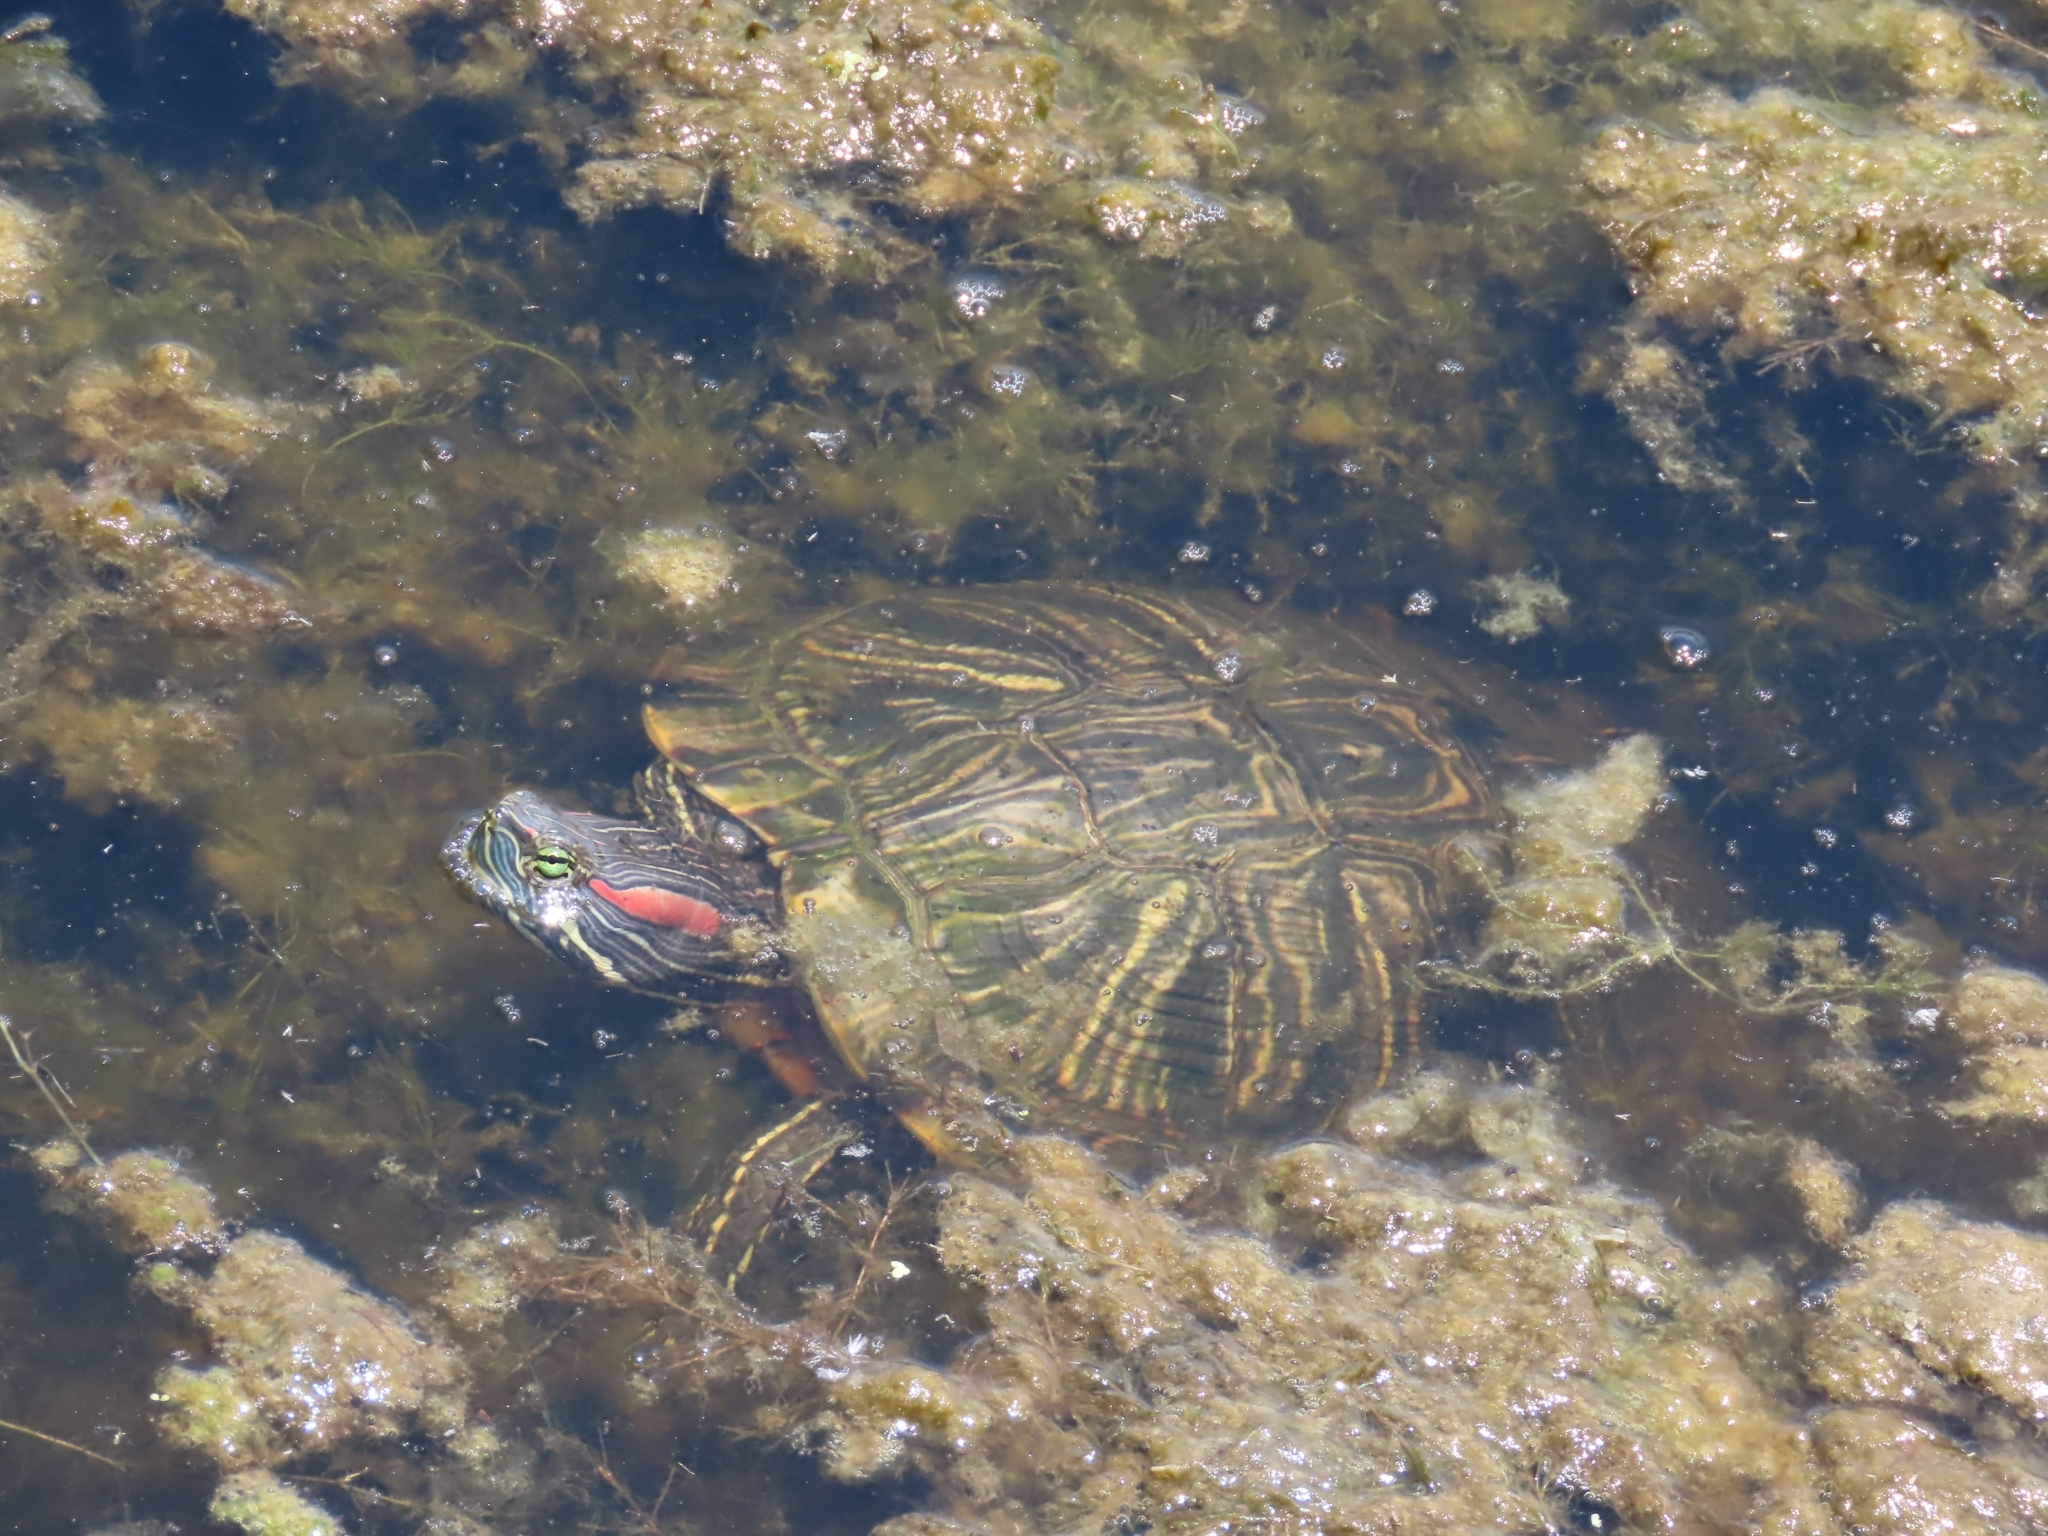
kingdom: Animalia
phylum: Chordata
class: Testudines
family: Emydidae
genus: Trachemys
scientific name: Trachemys scripta
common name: Slider
